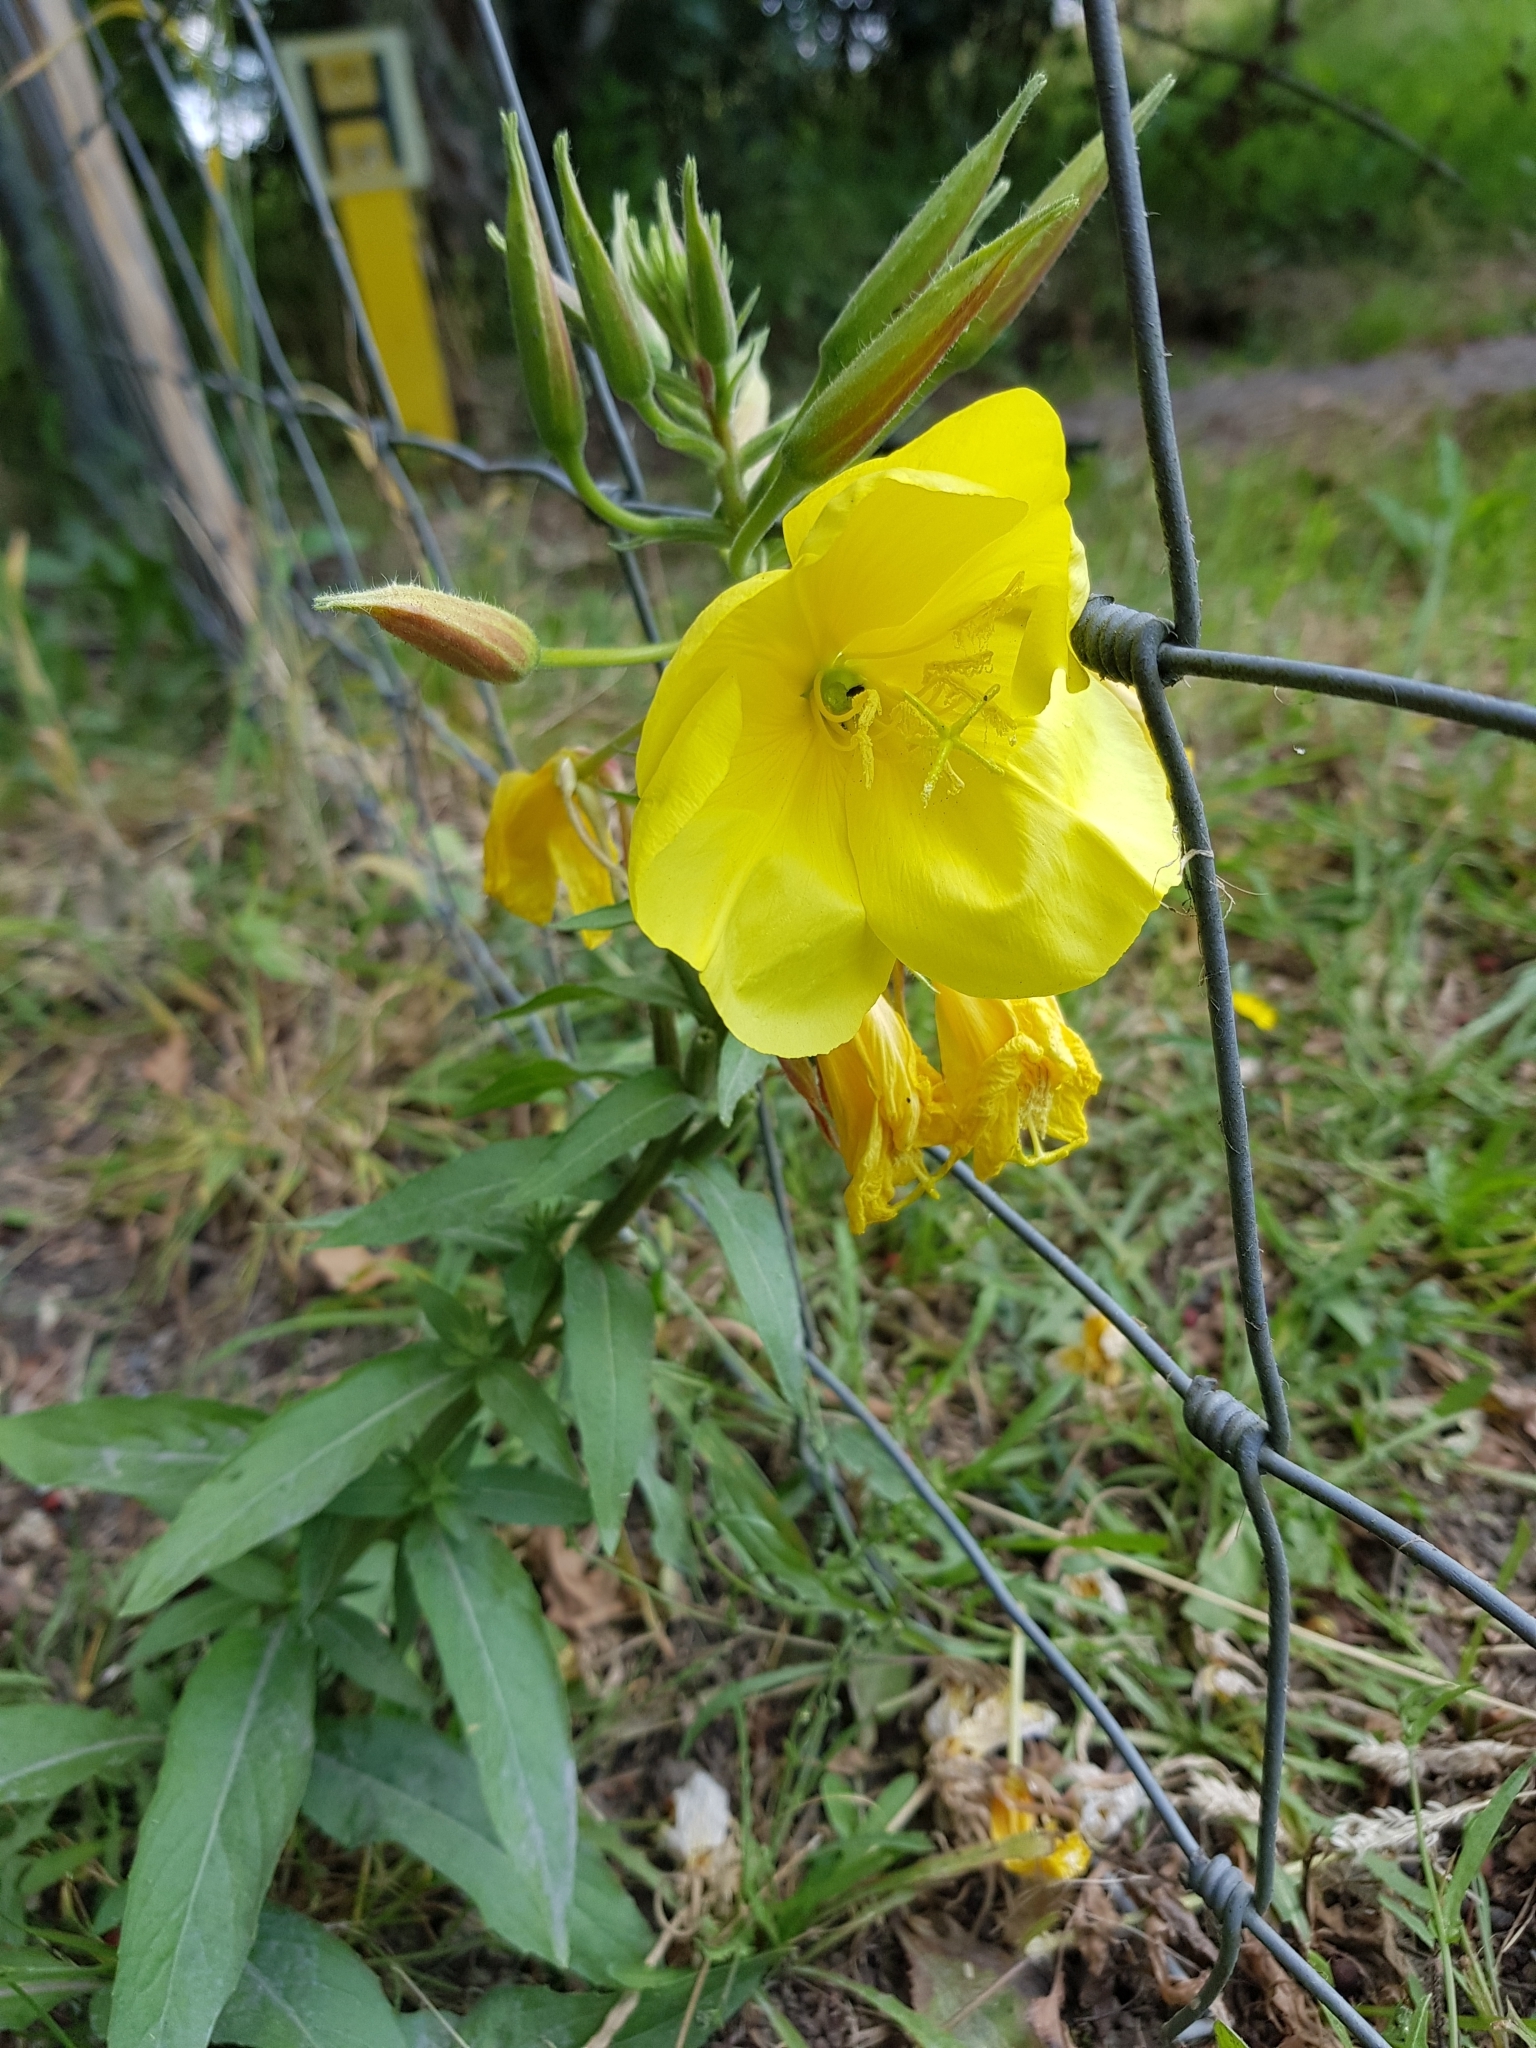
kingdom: Plantae
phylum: Tracheophyta
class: Magnoliopsida
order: Myrtales
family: Onagraceae
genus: Oenothera
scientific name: Oenothera glazioviana
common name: Large-flowered evening-primrose
